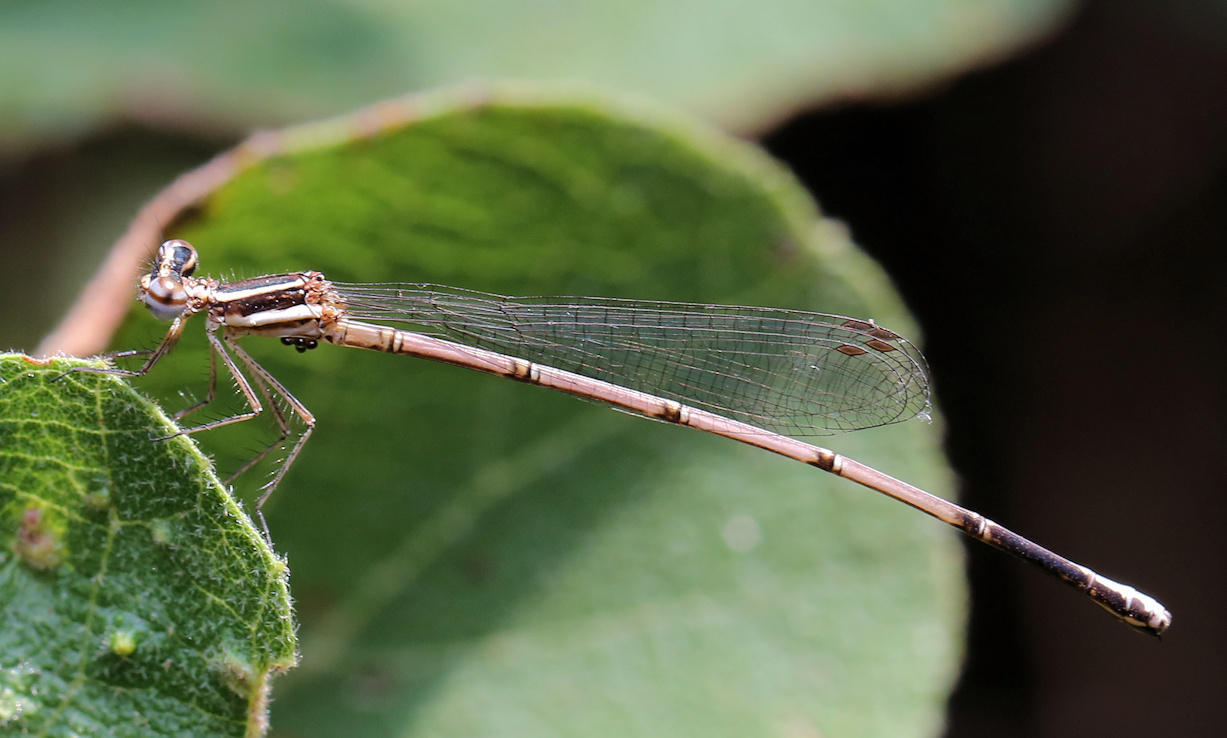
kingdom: Animalia
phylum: Arthropoda
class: Insecta
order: Odonata
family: Platycnemididae
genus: Elattoneura
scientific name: Elattoneura glauca
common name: Common threadtail
